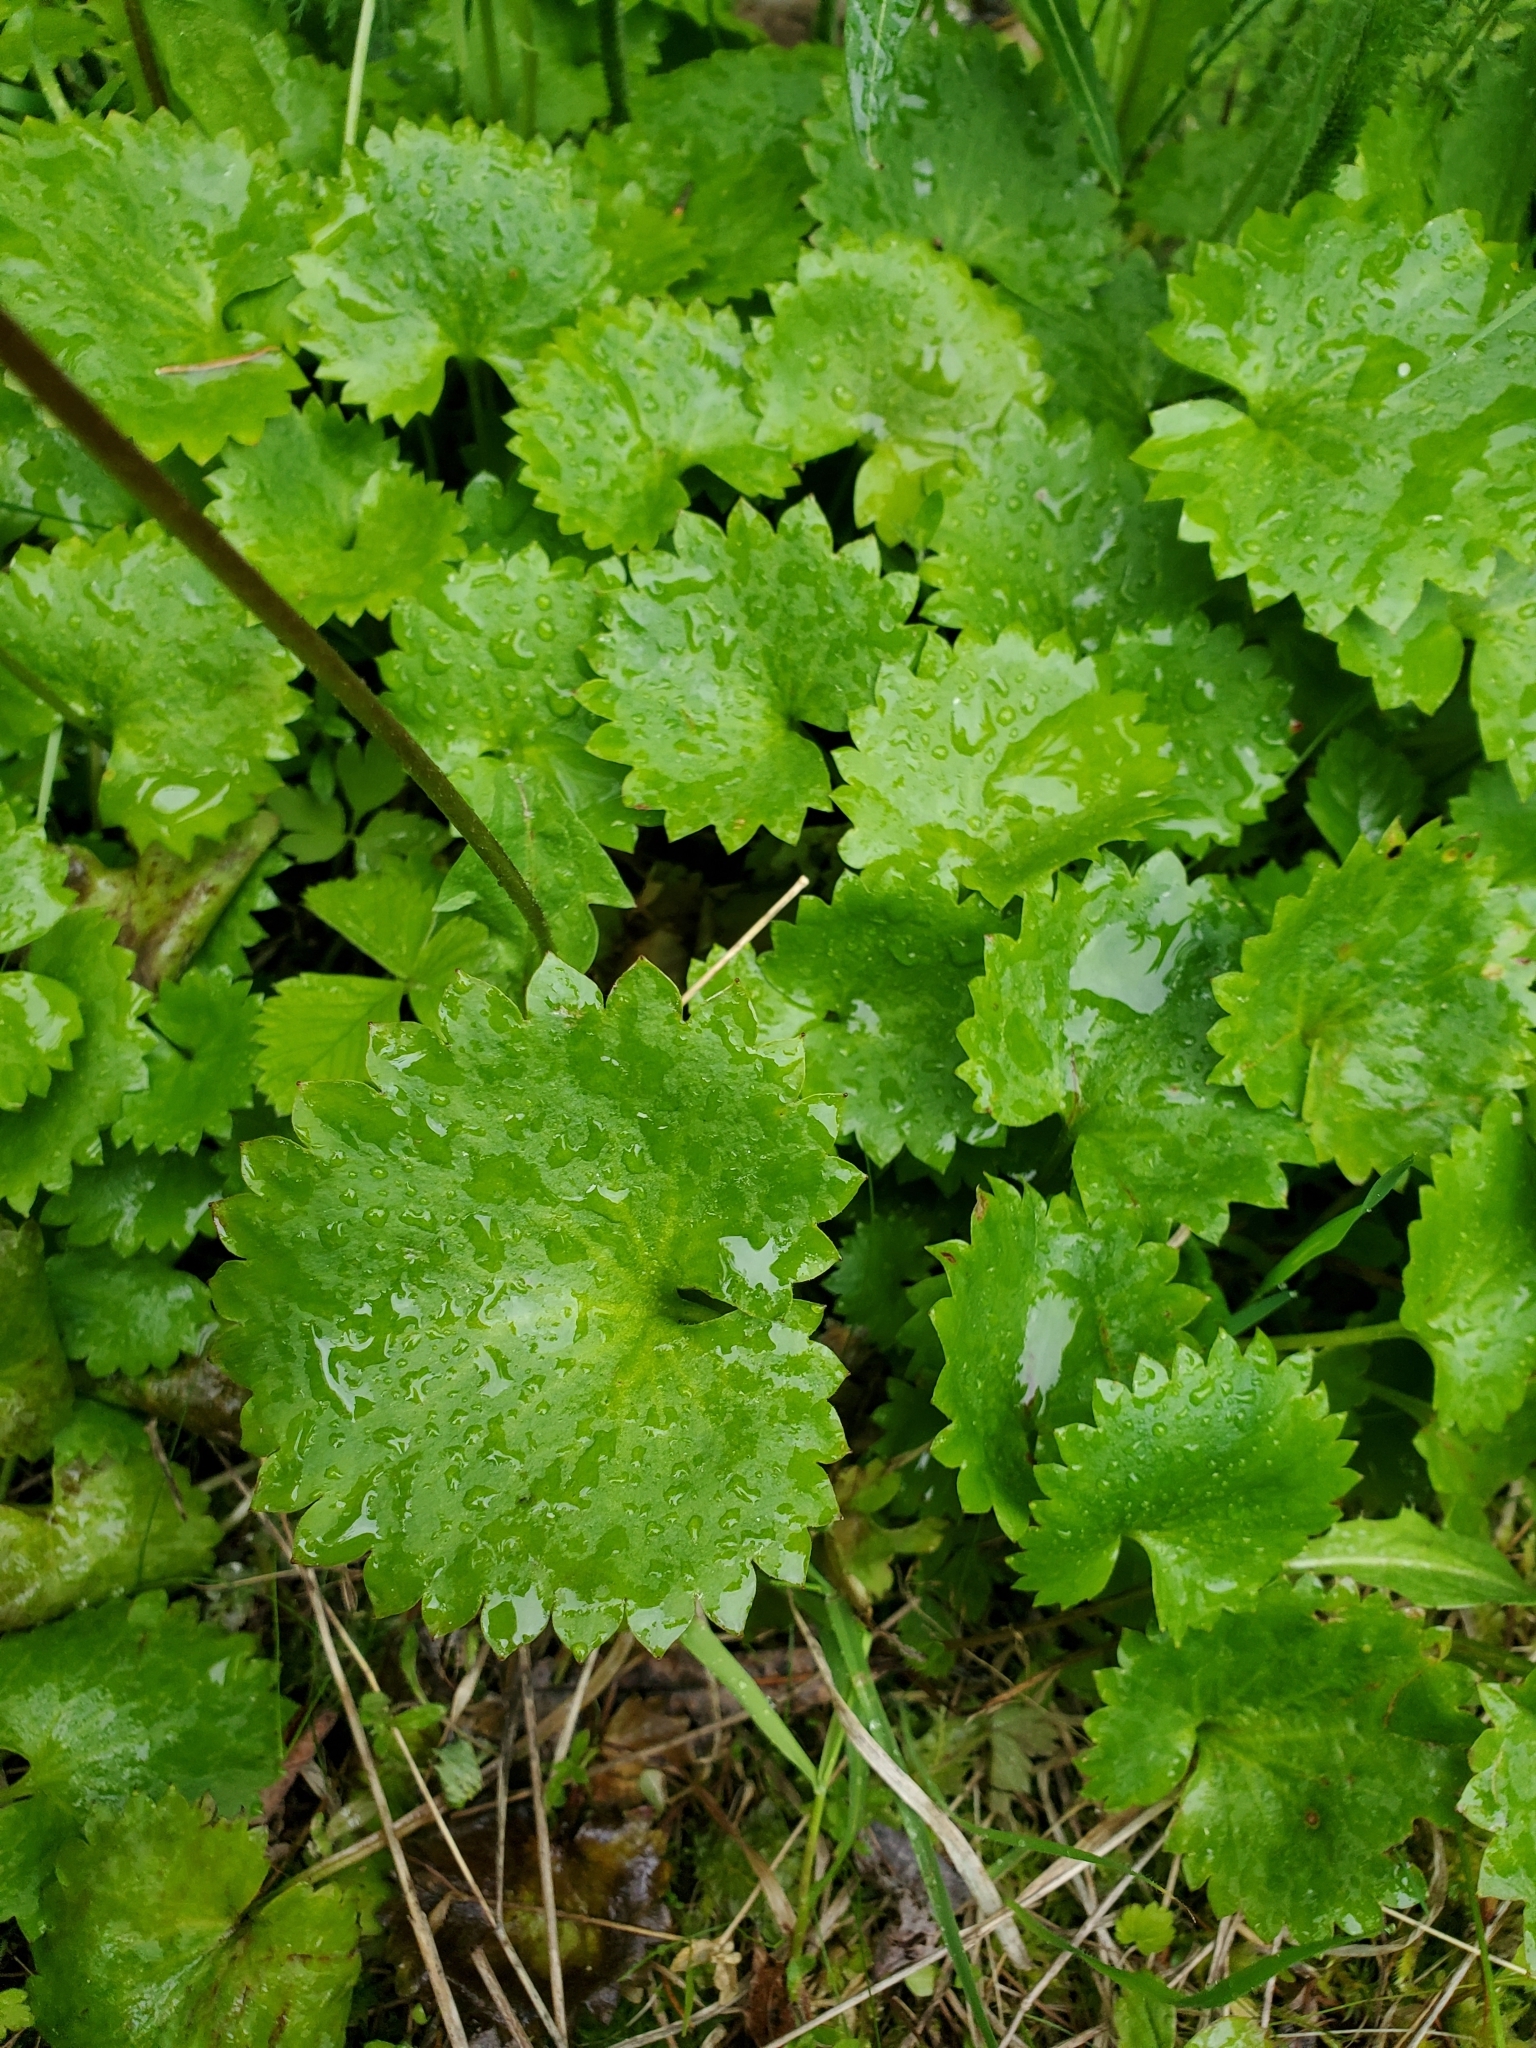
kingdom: Plantae
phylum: Tracheophyta
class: Magnoliopsida
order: Saxifragales
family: Saxifragaceae
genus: Micranthes
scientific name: Micranthes odontoloma
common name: Brook saxifrage
